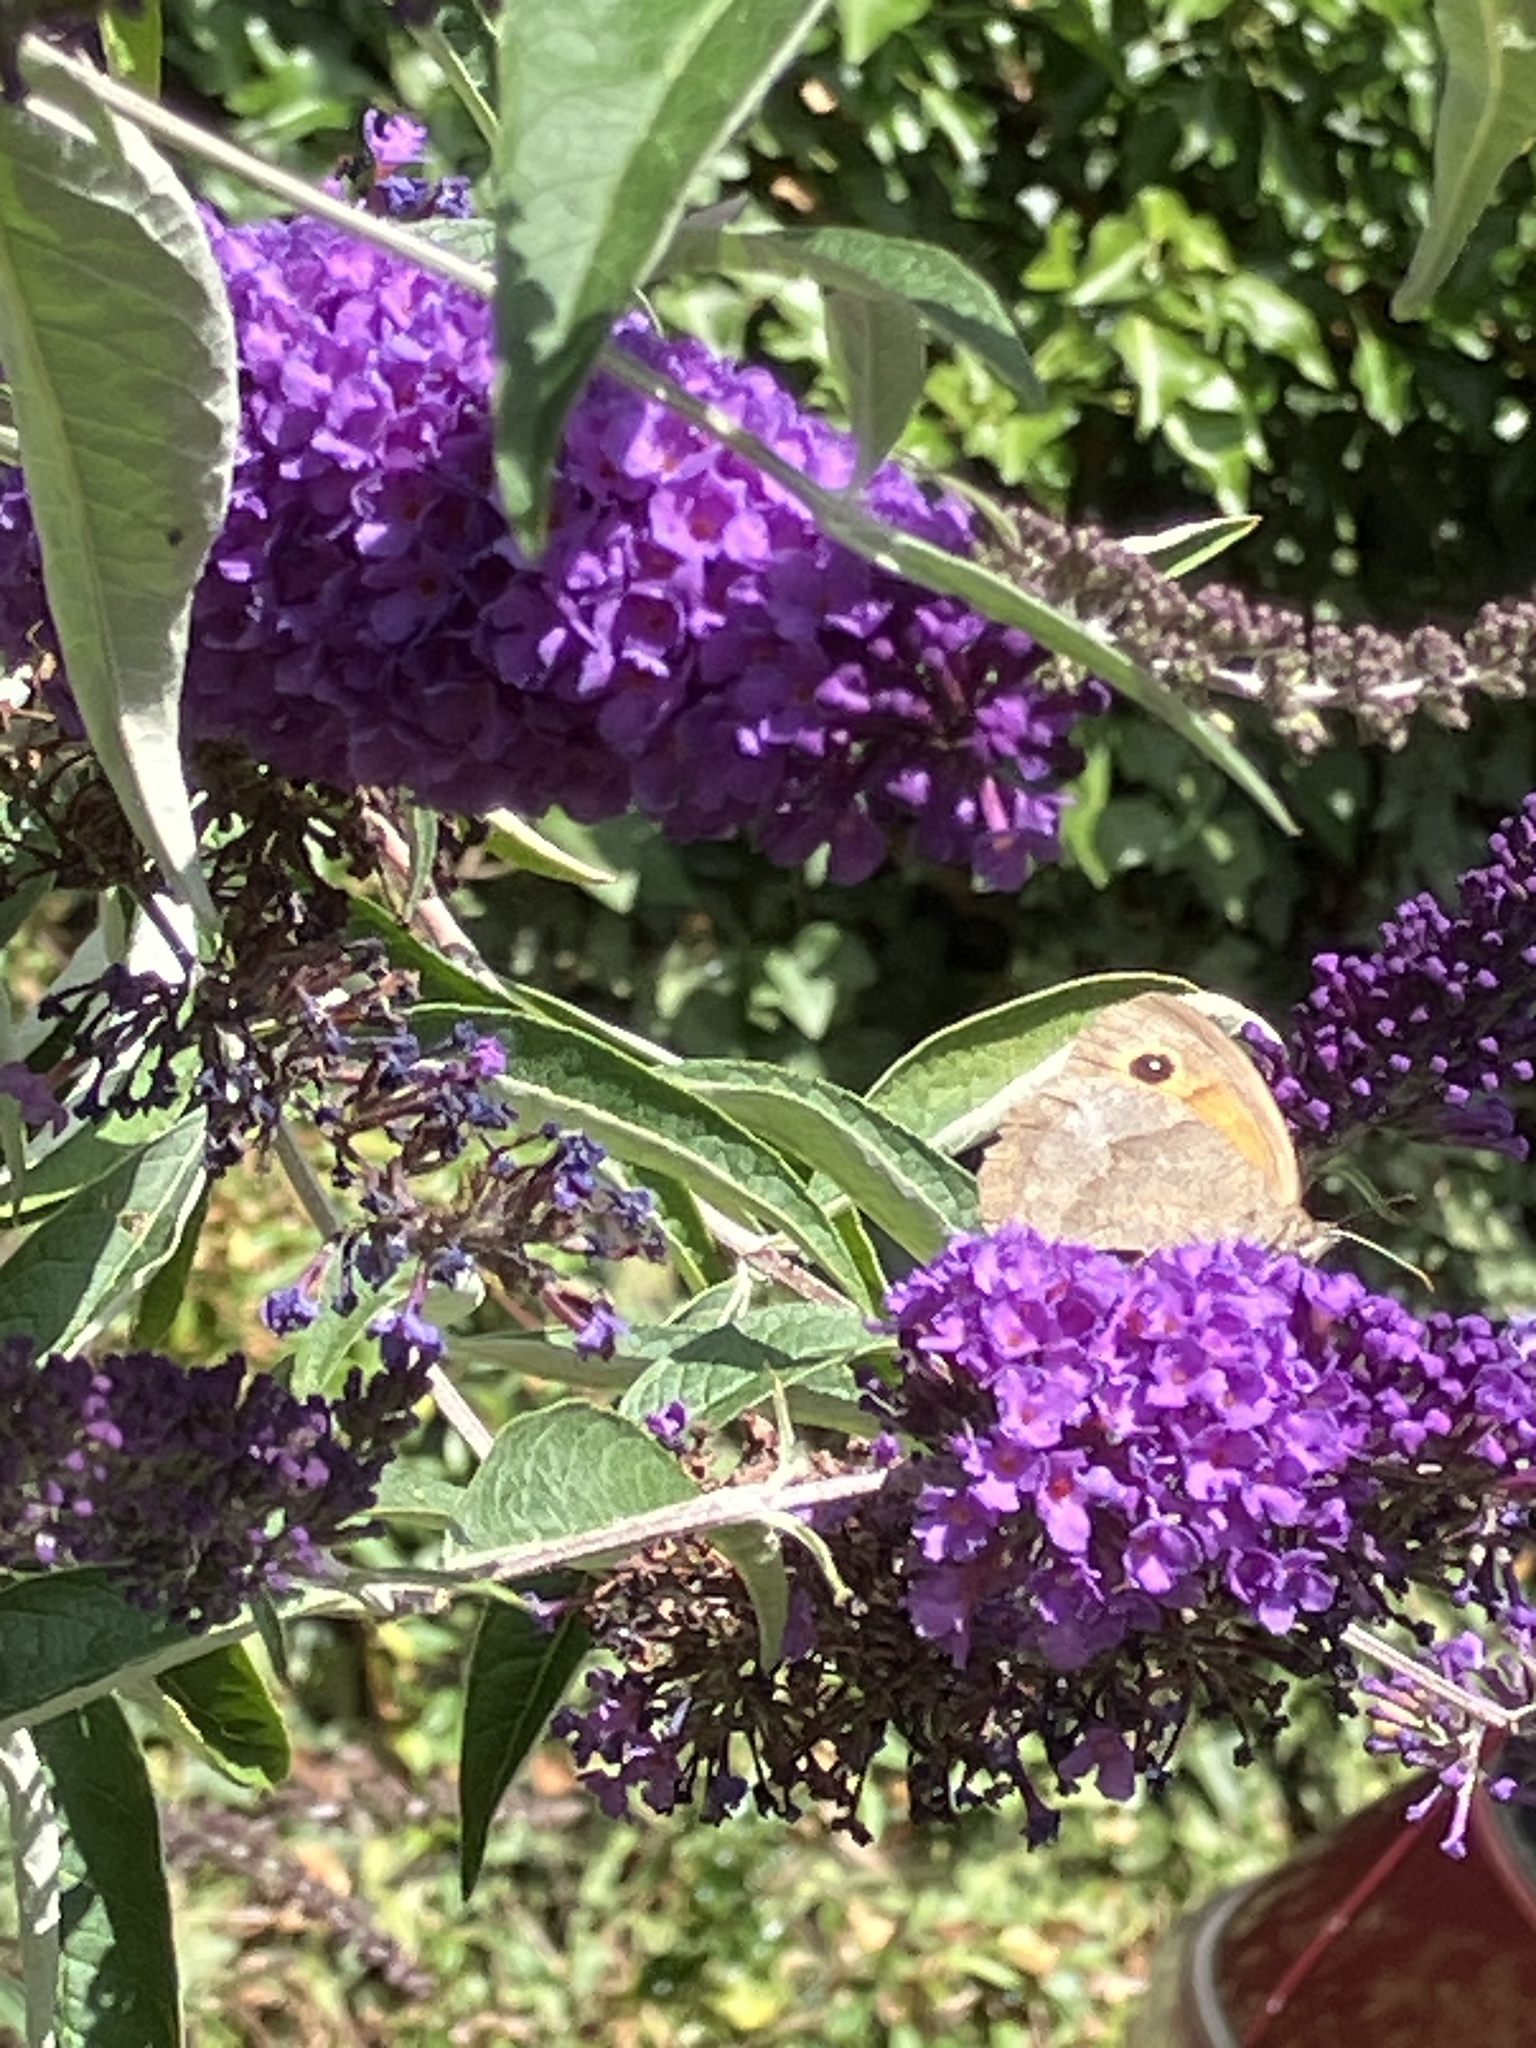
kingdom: Animalia
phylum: Arthropoda
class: Insecta
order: Lepidoptera
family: Nymphalidae
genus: Maniola
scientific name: Maniola jurtina
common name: Meadow brown
